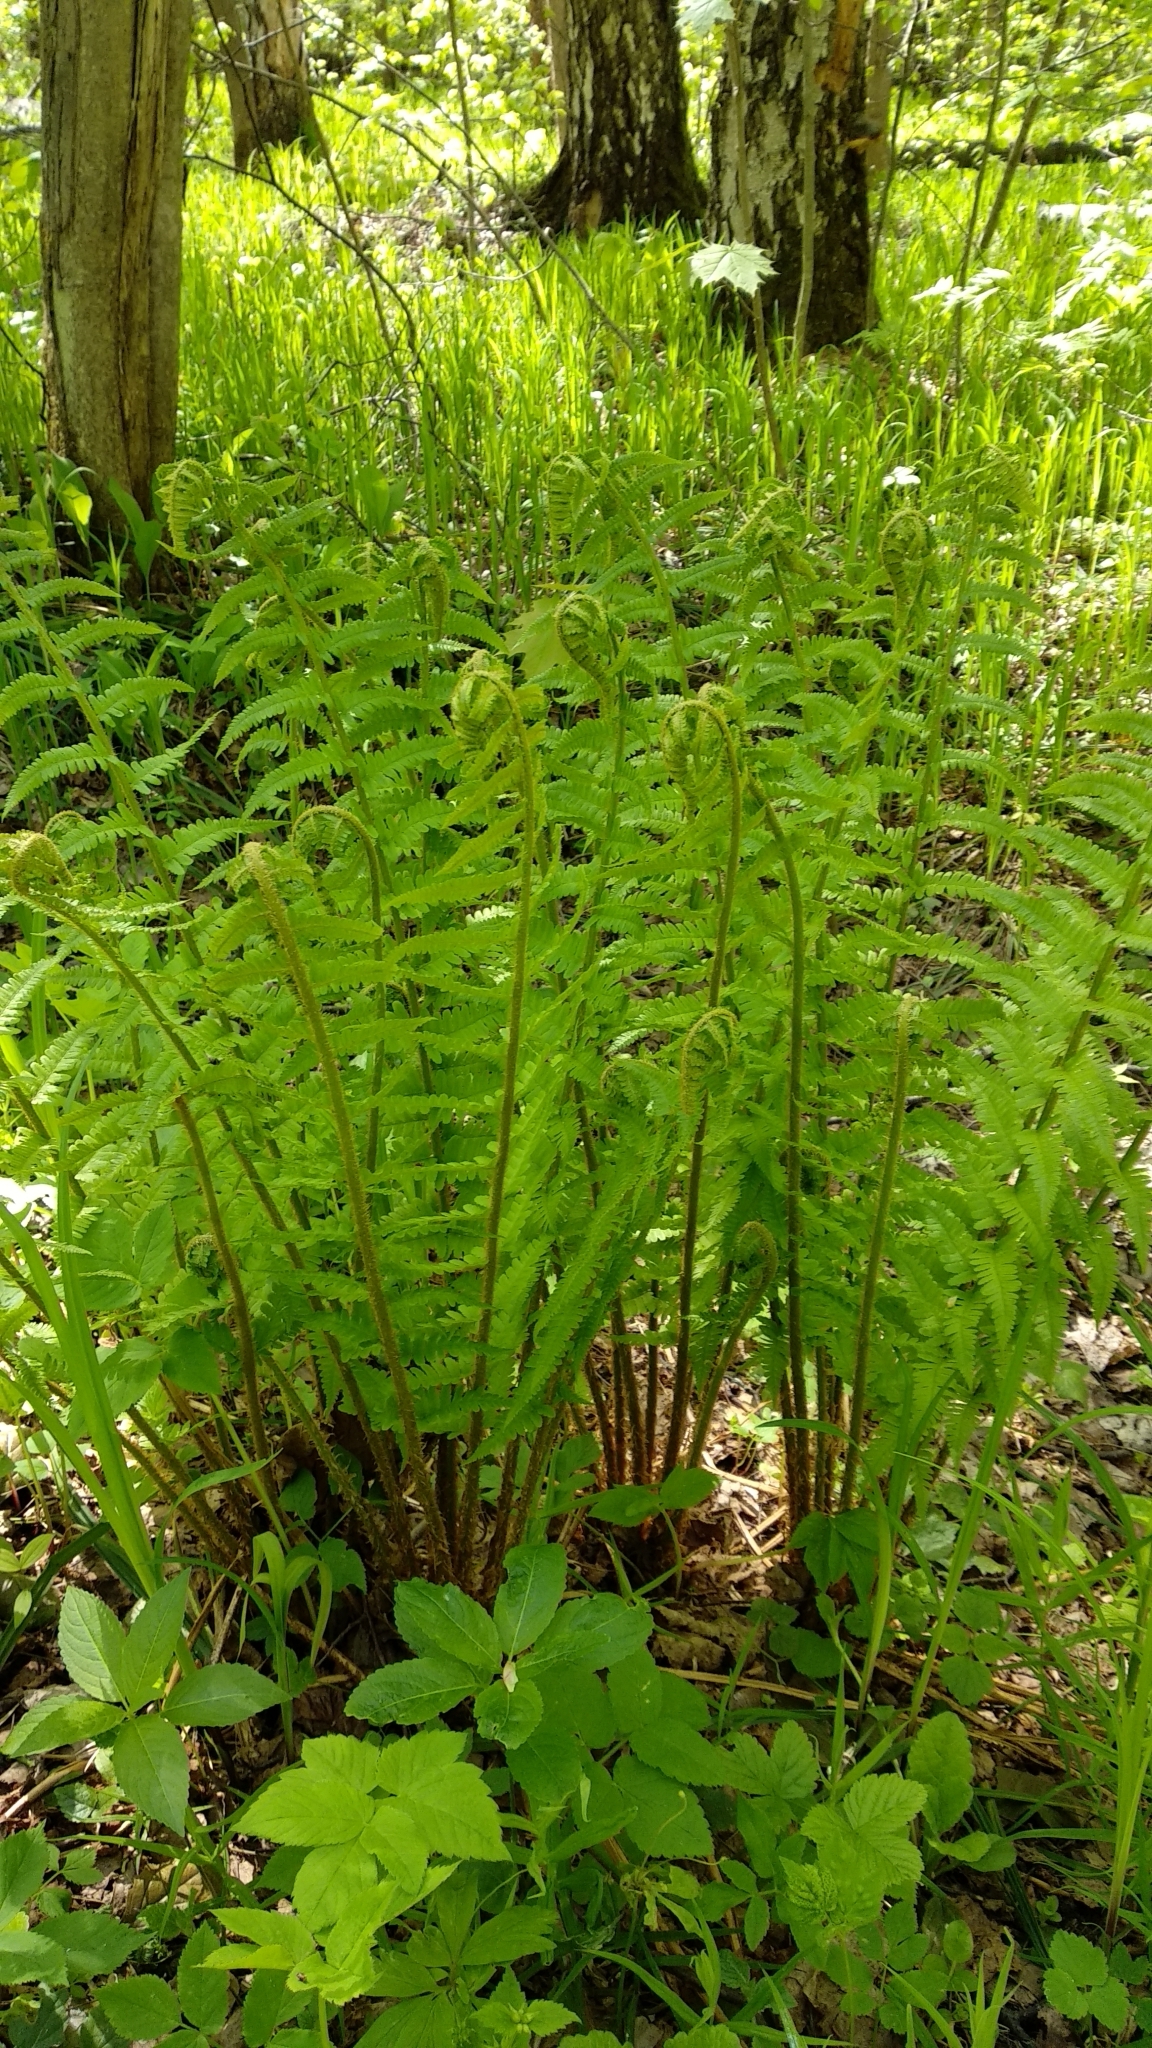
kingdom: Plantae
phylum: Tracheophyta
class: Polypodiopsida
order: Polypodiales
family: Dryopteridaceae
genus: Dryopteris
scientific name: Dryopteris filix-mas
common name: Male fern
